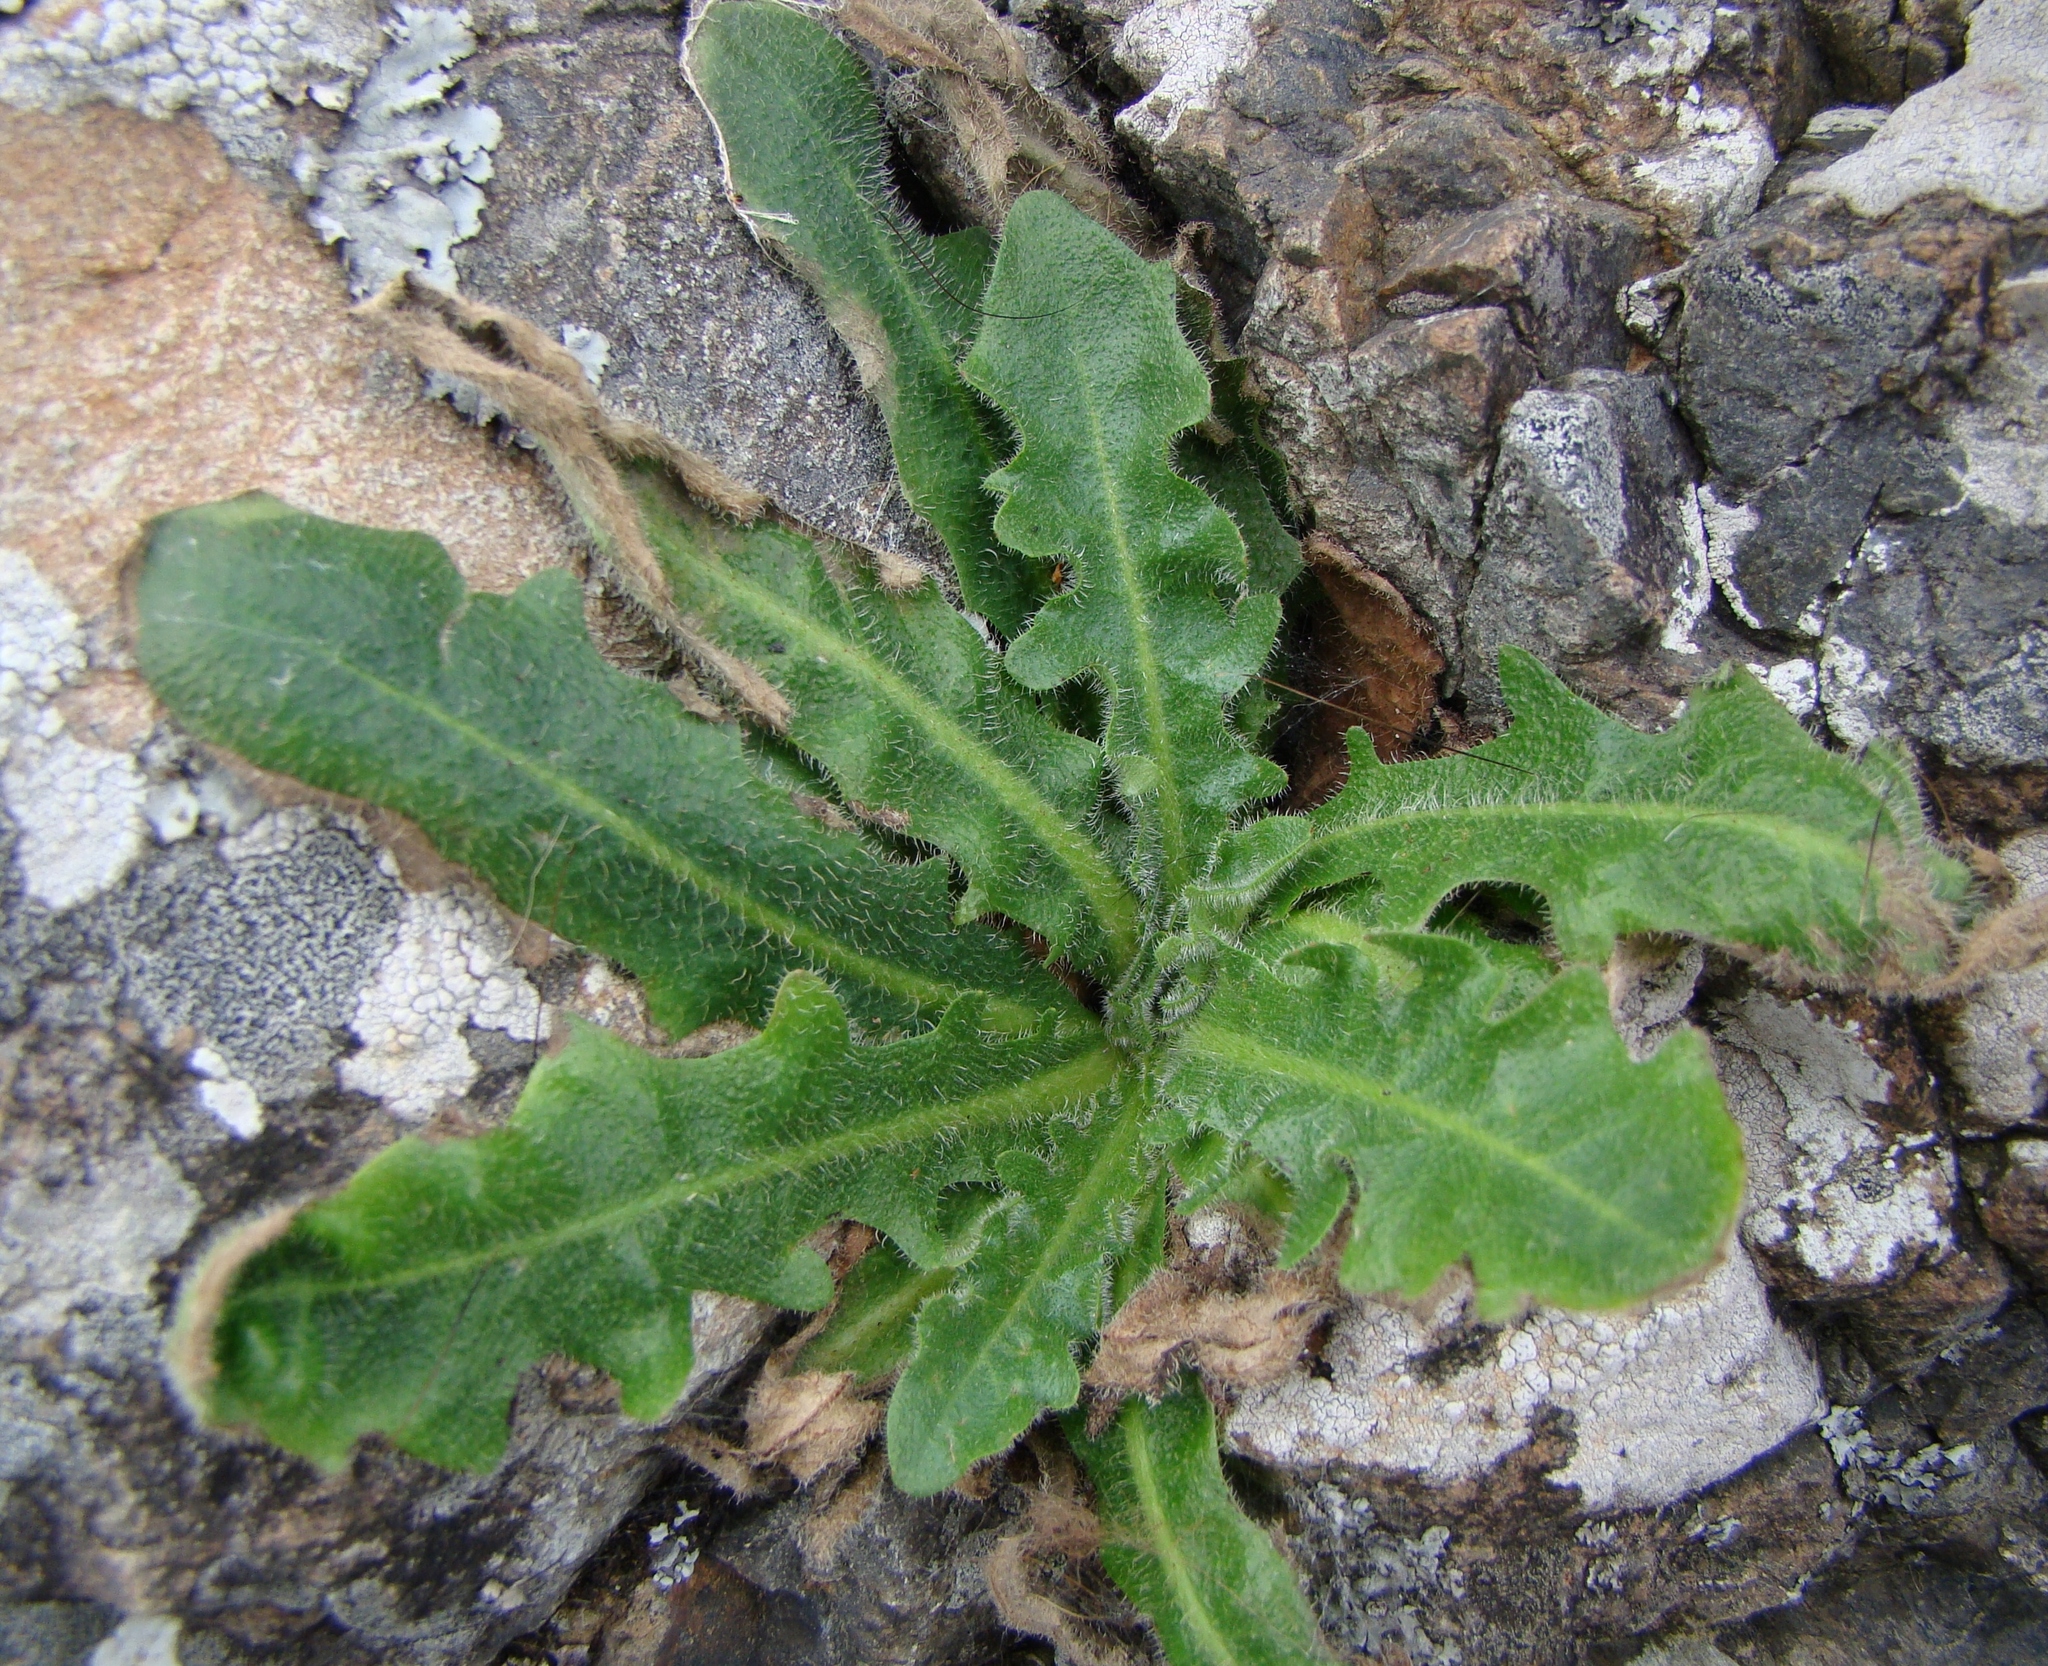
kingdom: Plantae
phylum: Tracheophyta
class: Magnoliopsida
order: Asterales
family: Asteraceae
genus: Hypochaeris
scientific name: Hypochaeris radicata
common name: Flatweed
